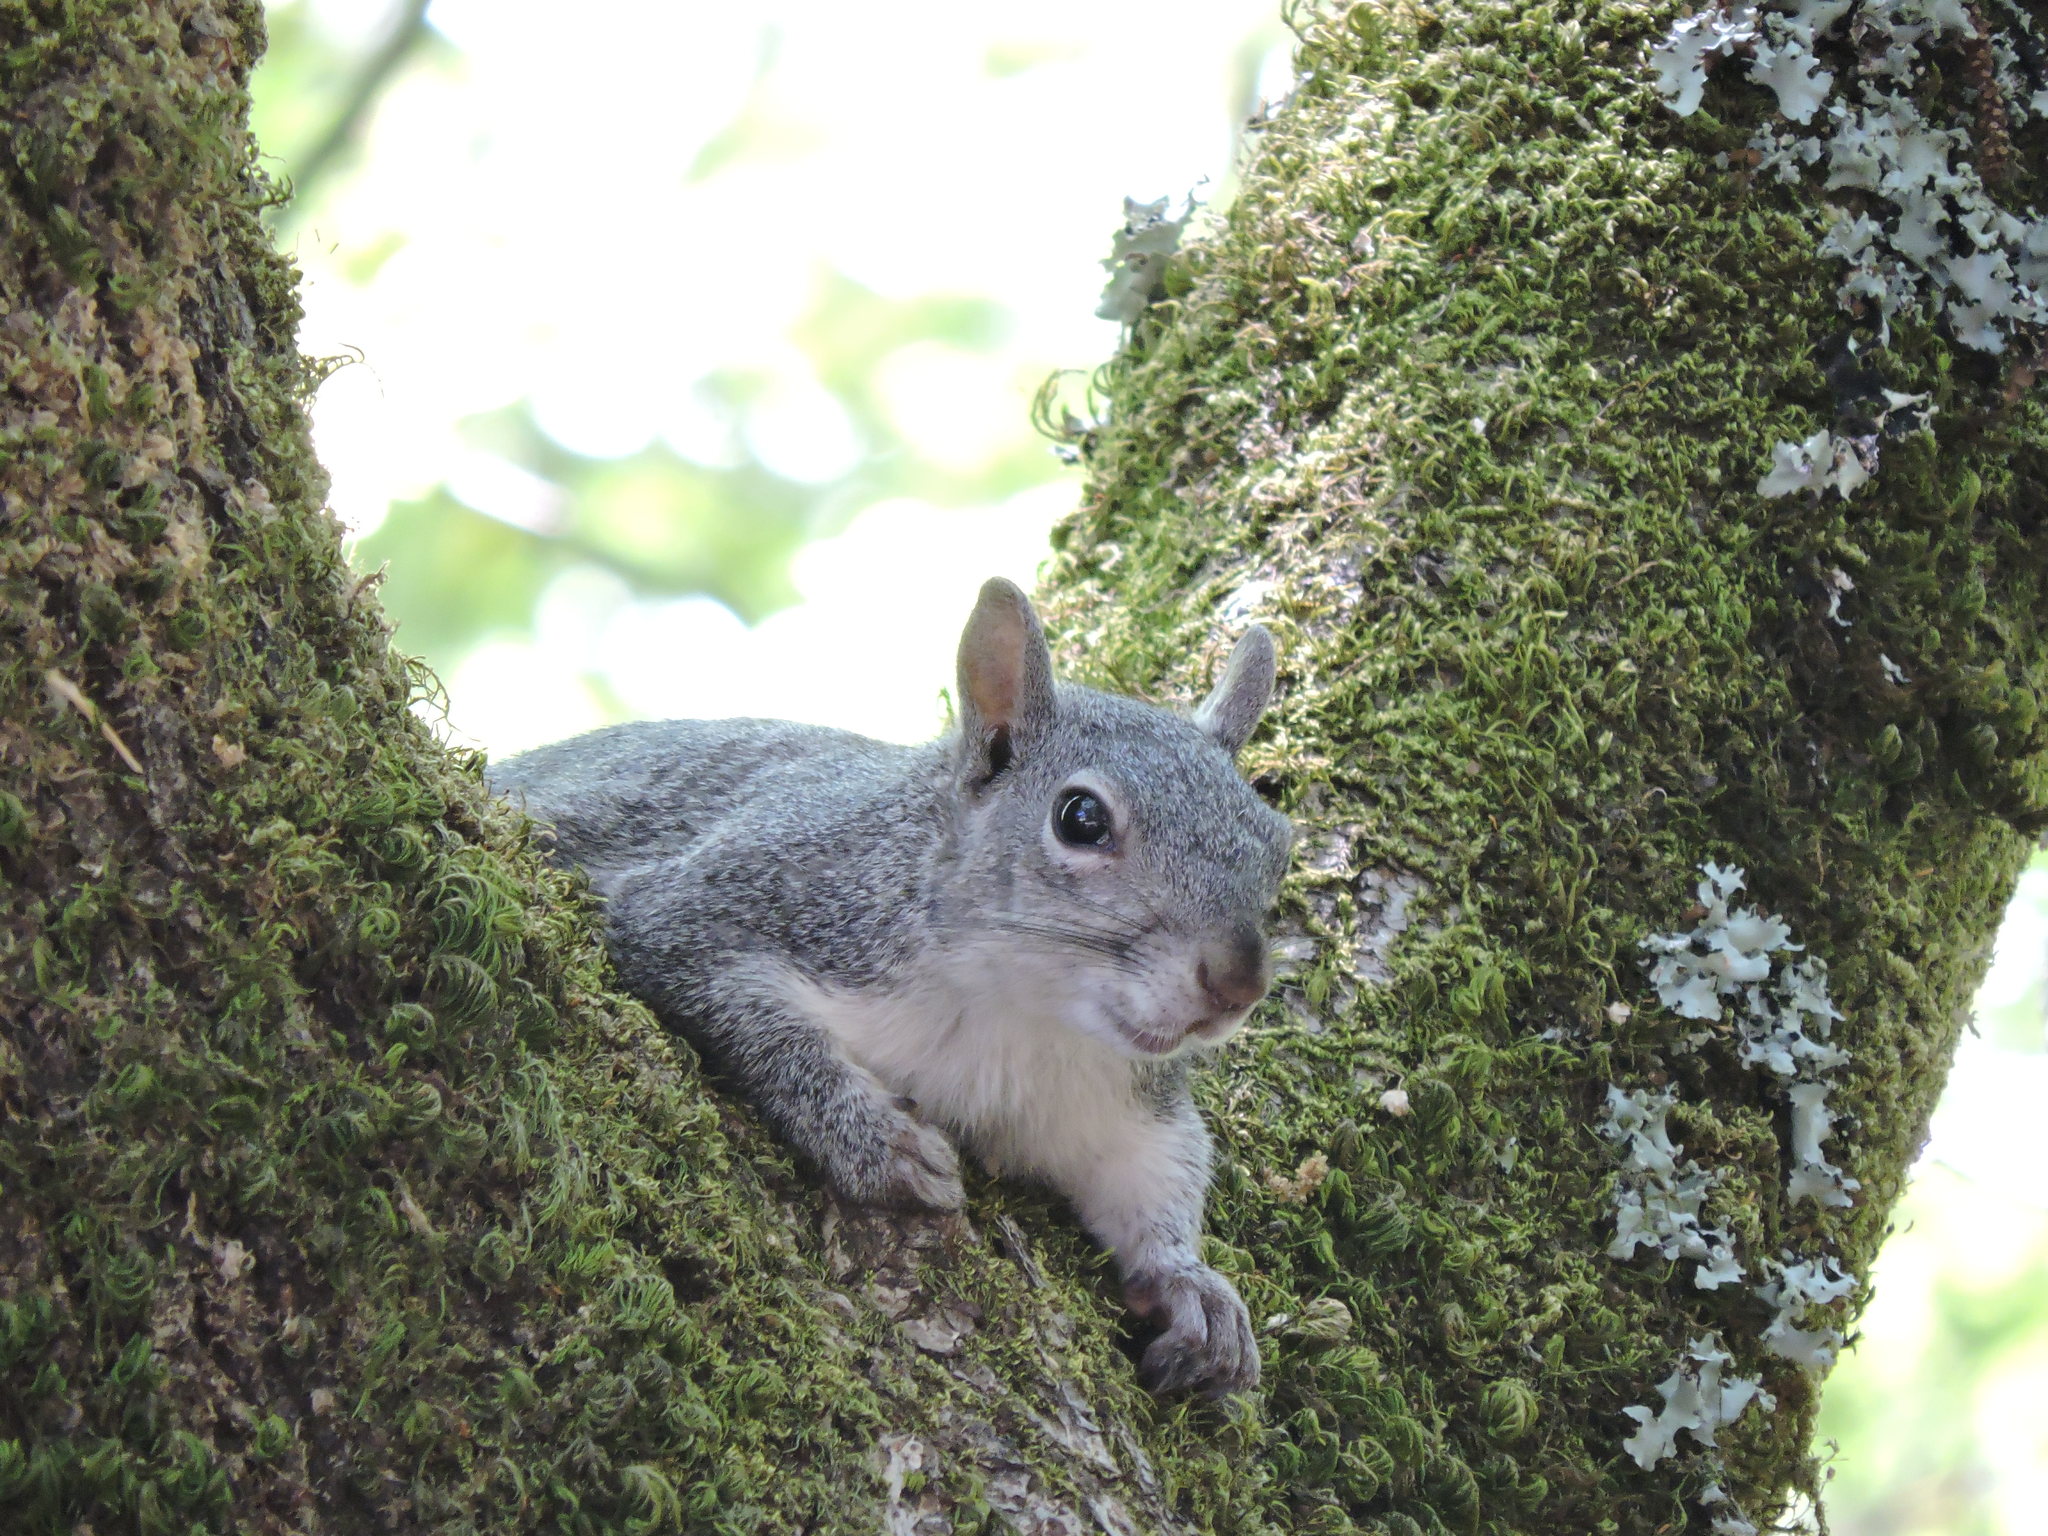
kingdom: Animalia
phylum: Chordata
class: Mammalia
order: Rodentia
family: Sciuridae
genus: Sciurus
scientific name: Sciurus griseus
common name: Western gray squirrel
